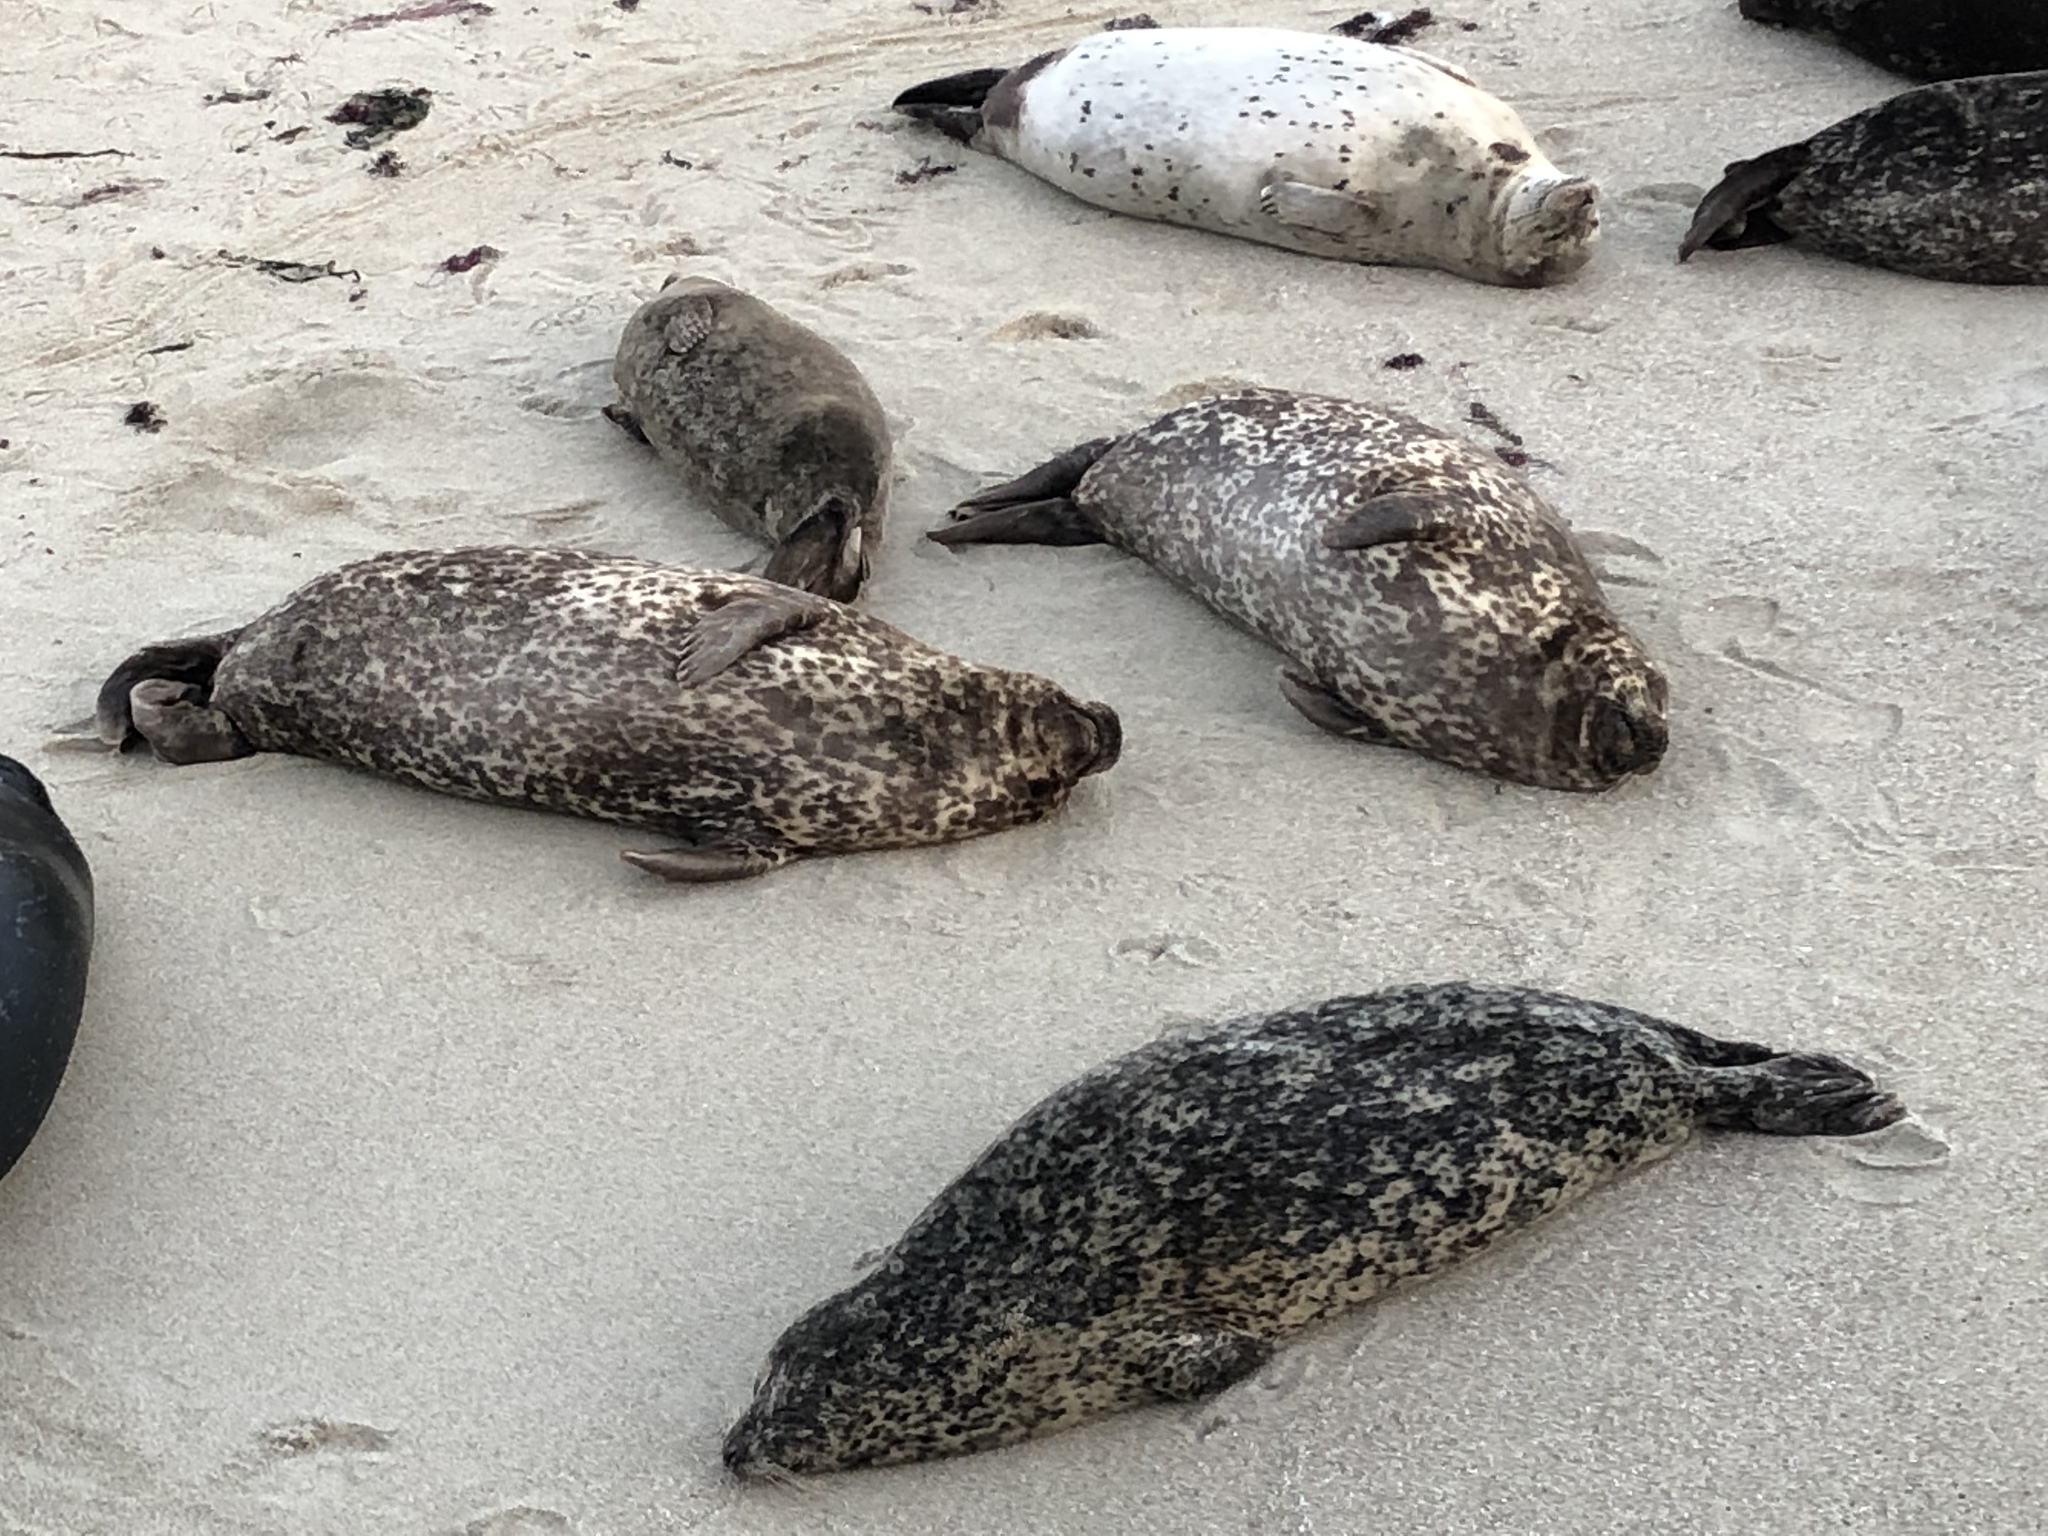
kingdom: Animalia
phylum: Chordata
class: Mammalia
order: Carnivora
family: Phocidae
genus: Phoca
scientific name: Phoca vitulina
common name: Harbor seal
